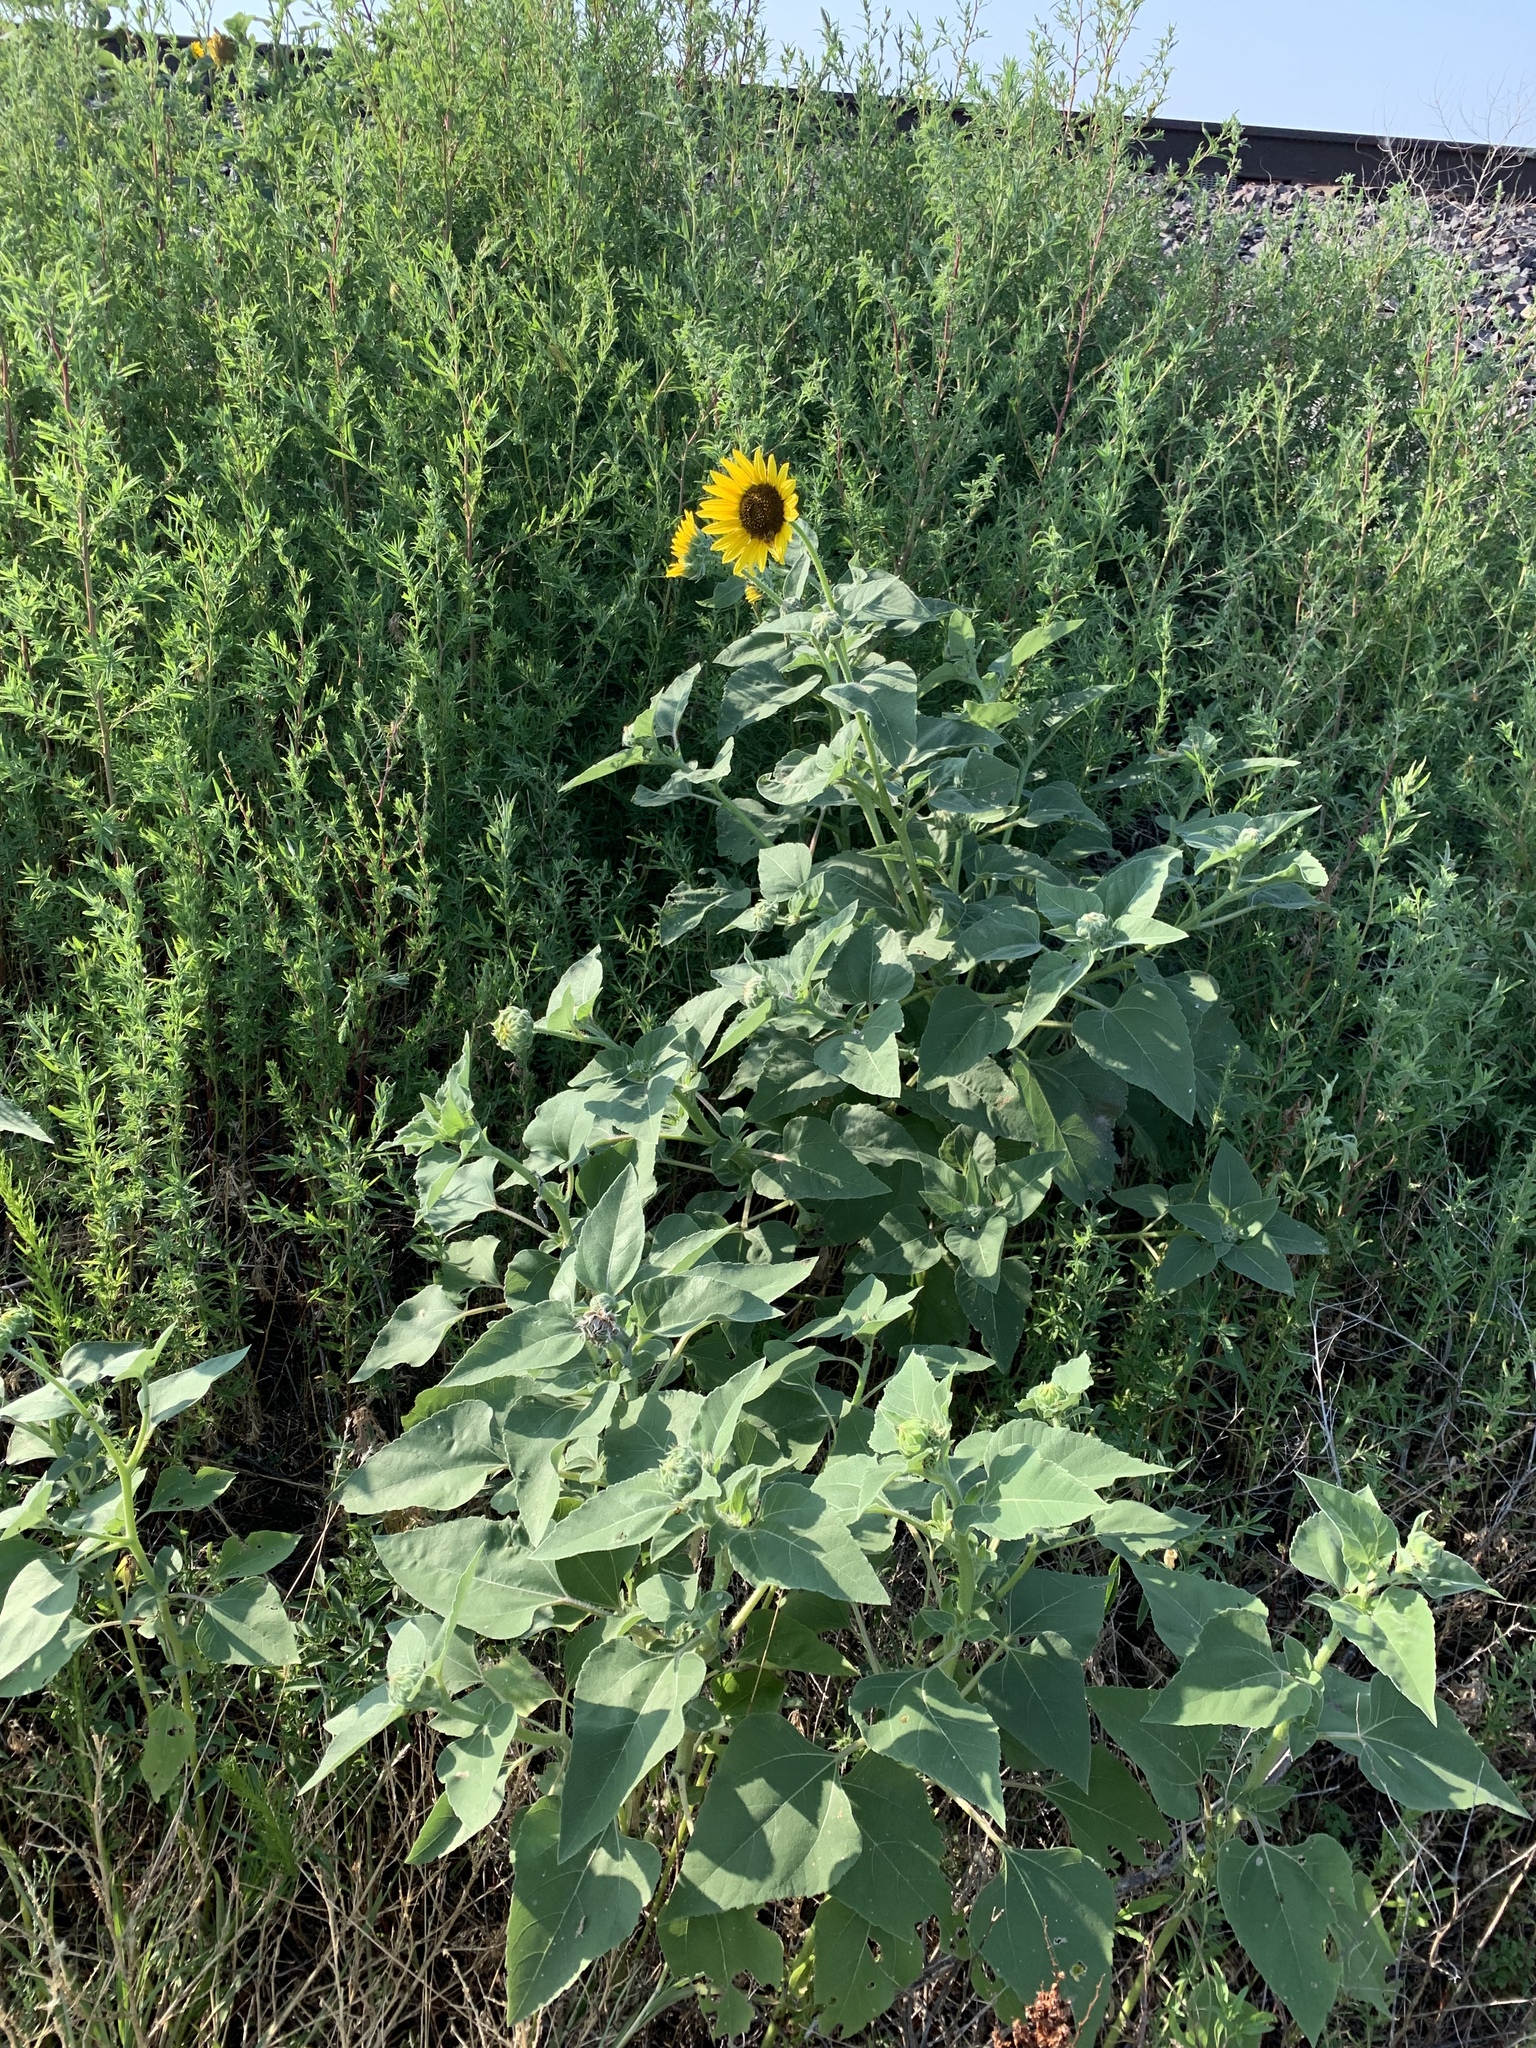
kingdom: Plantae
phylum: Tracheophyta
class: Magnoliopsida
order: Asterales
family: Asteraceae
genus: Helianthus
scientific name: Helianthus annuus
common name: Sunflower
